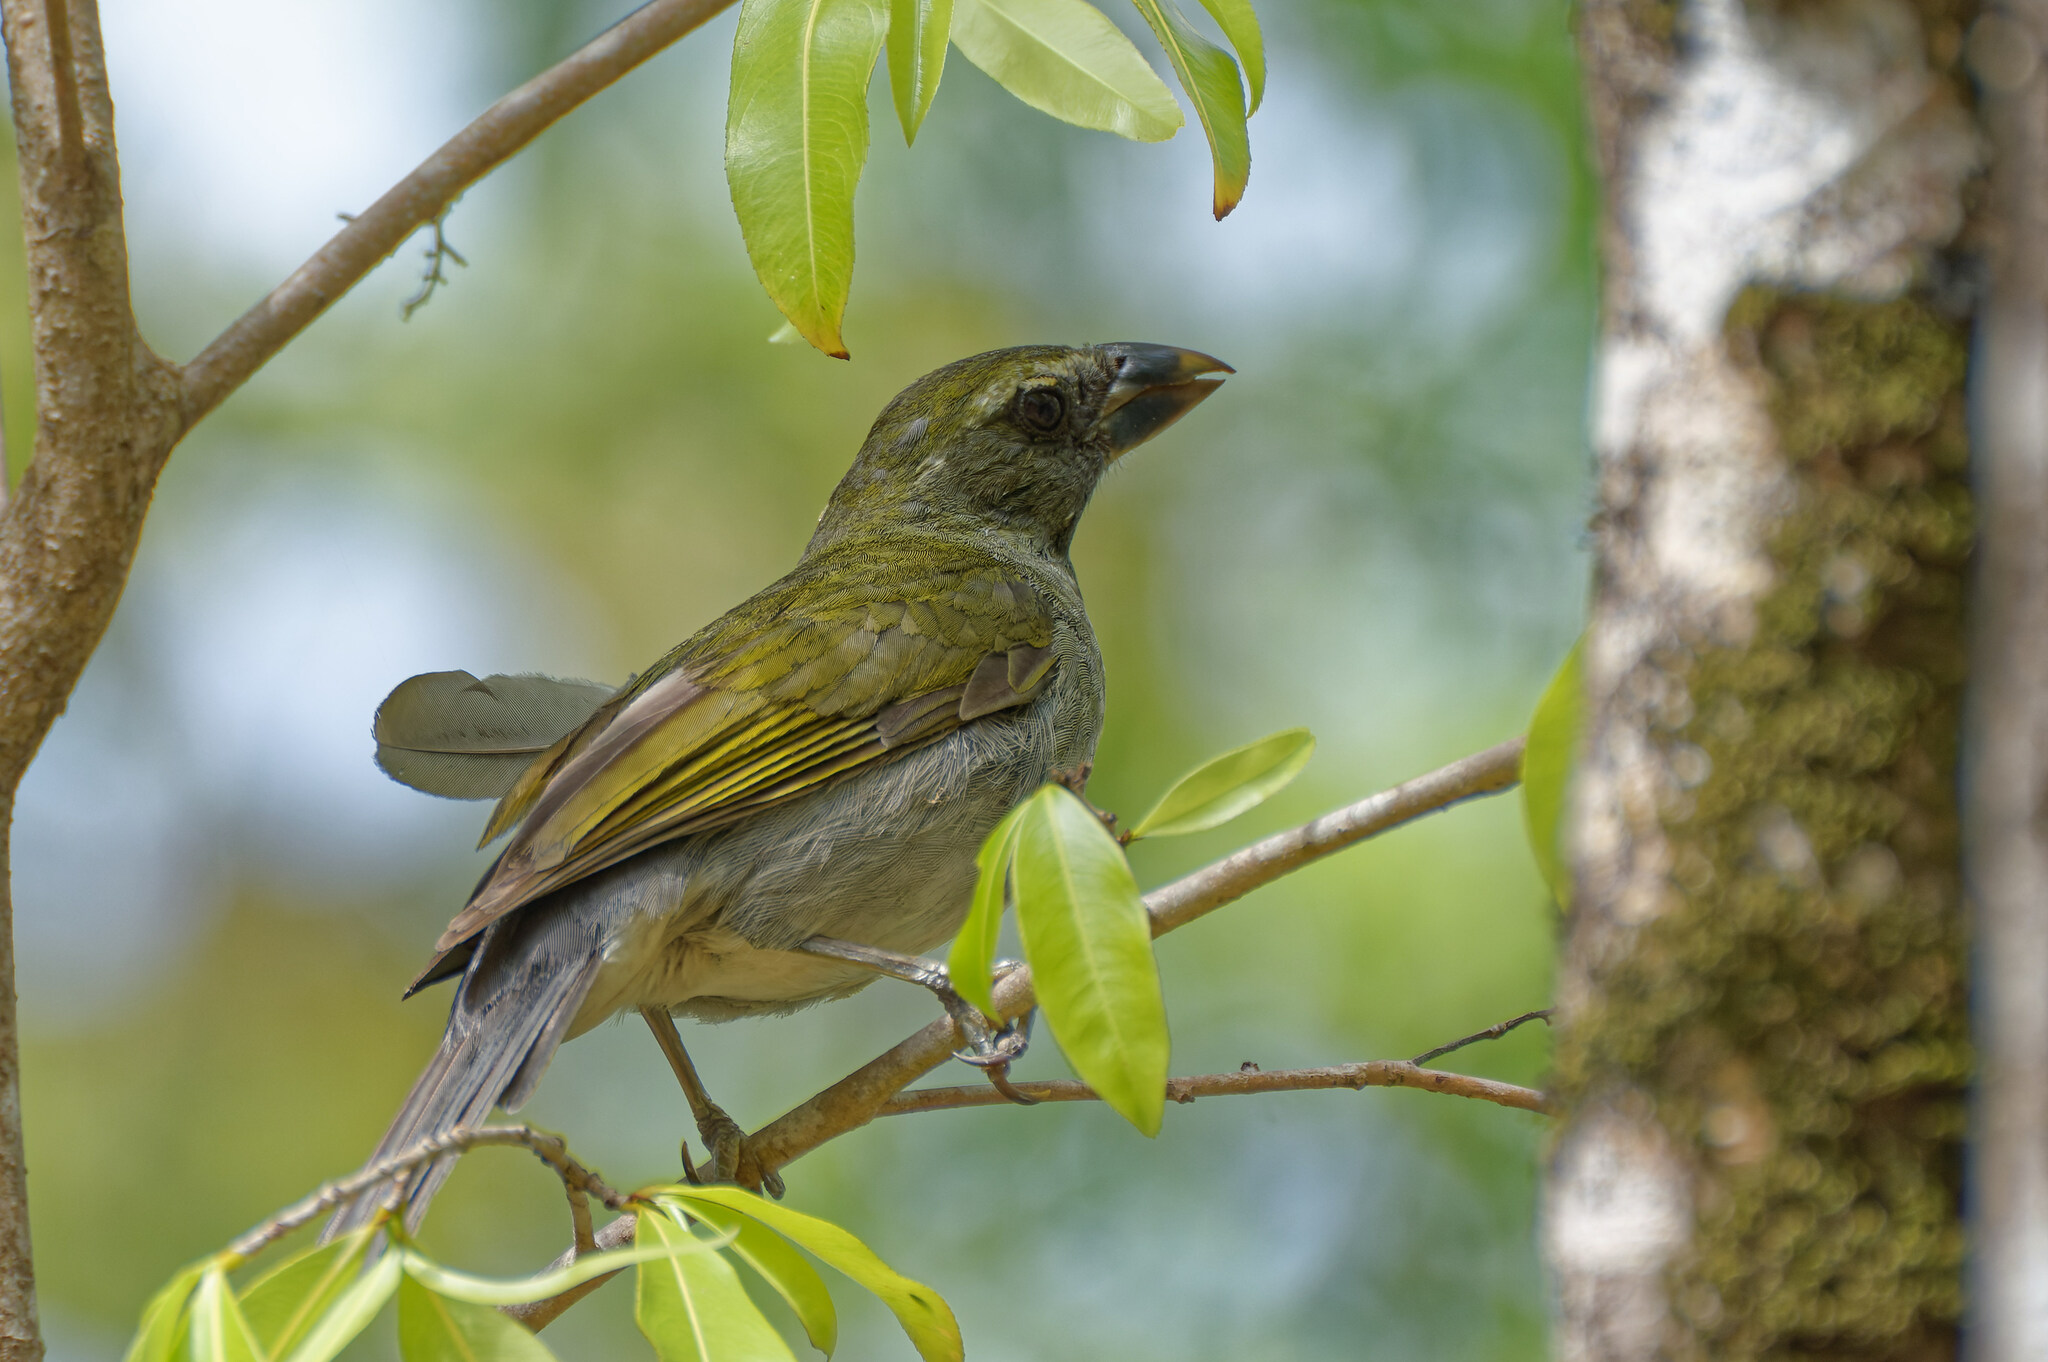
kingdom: Animalia
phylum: Chordata
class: Aves
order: Passeriformes
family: Thraupidae
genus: Saltator
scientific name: Saltator albicollis
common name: Lesser antillean saltator
